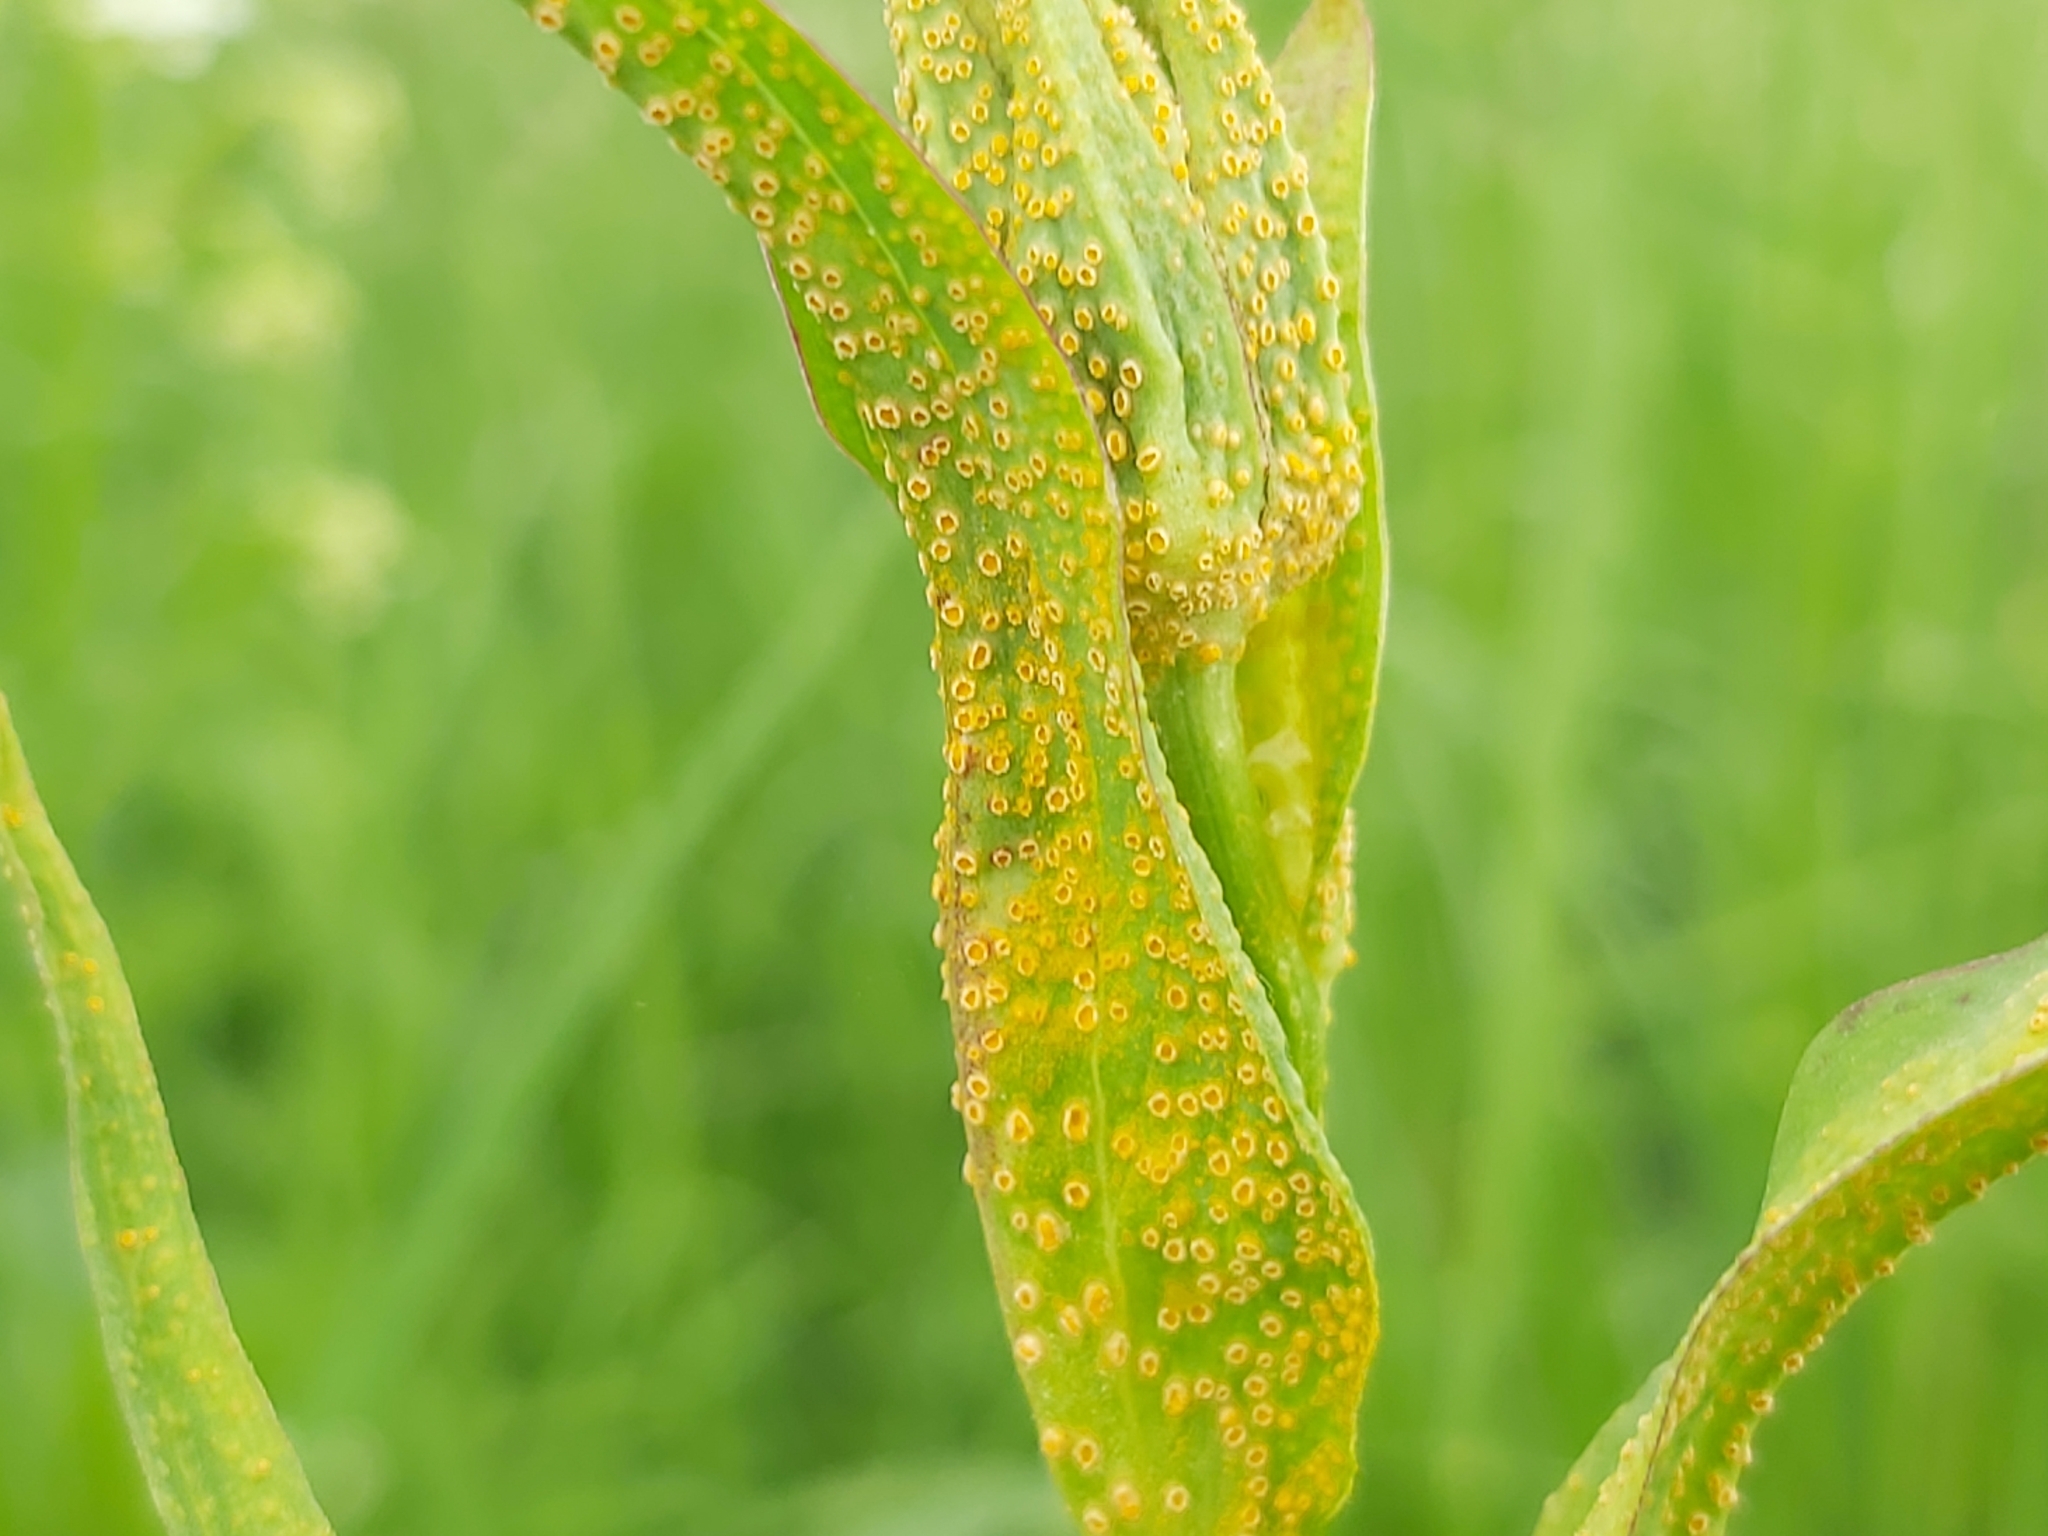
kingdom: Fungi
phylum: Basidiomycota
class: Pucciniomycetes
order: Pucciniales
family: Pucciniaceae
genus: Puccinia
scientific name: Puccinia hysterium
